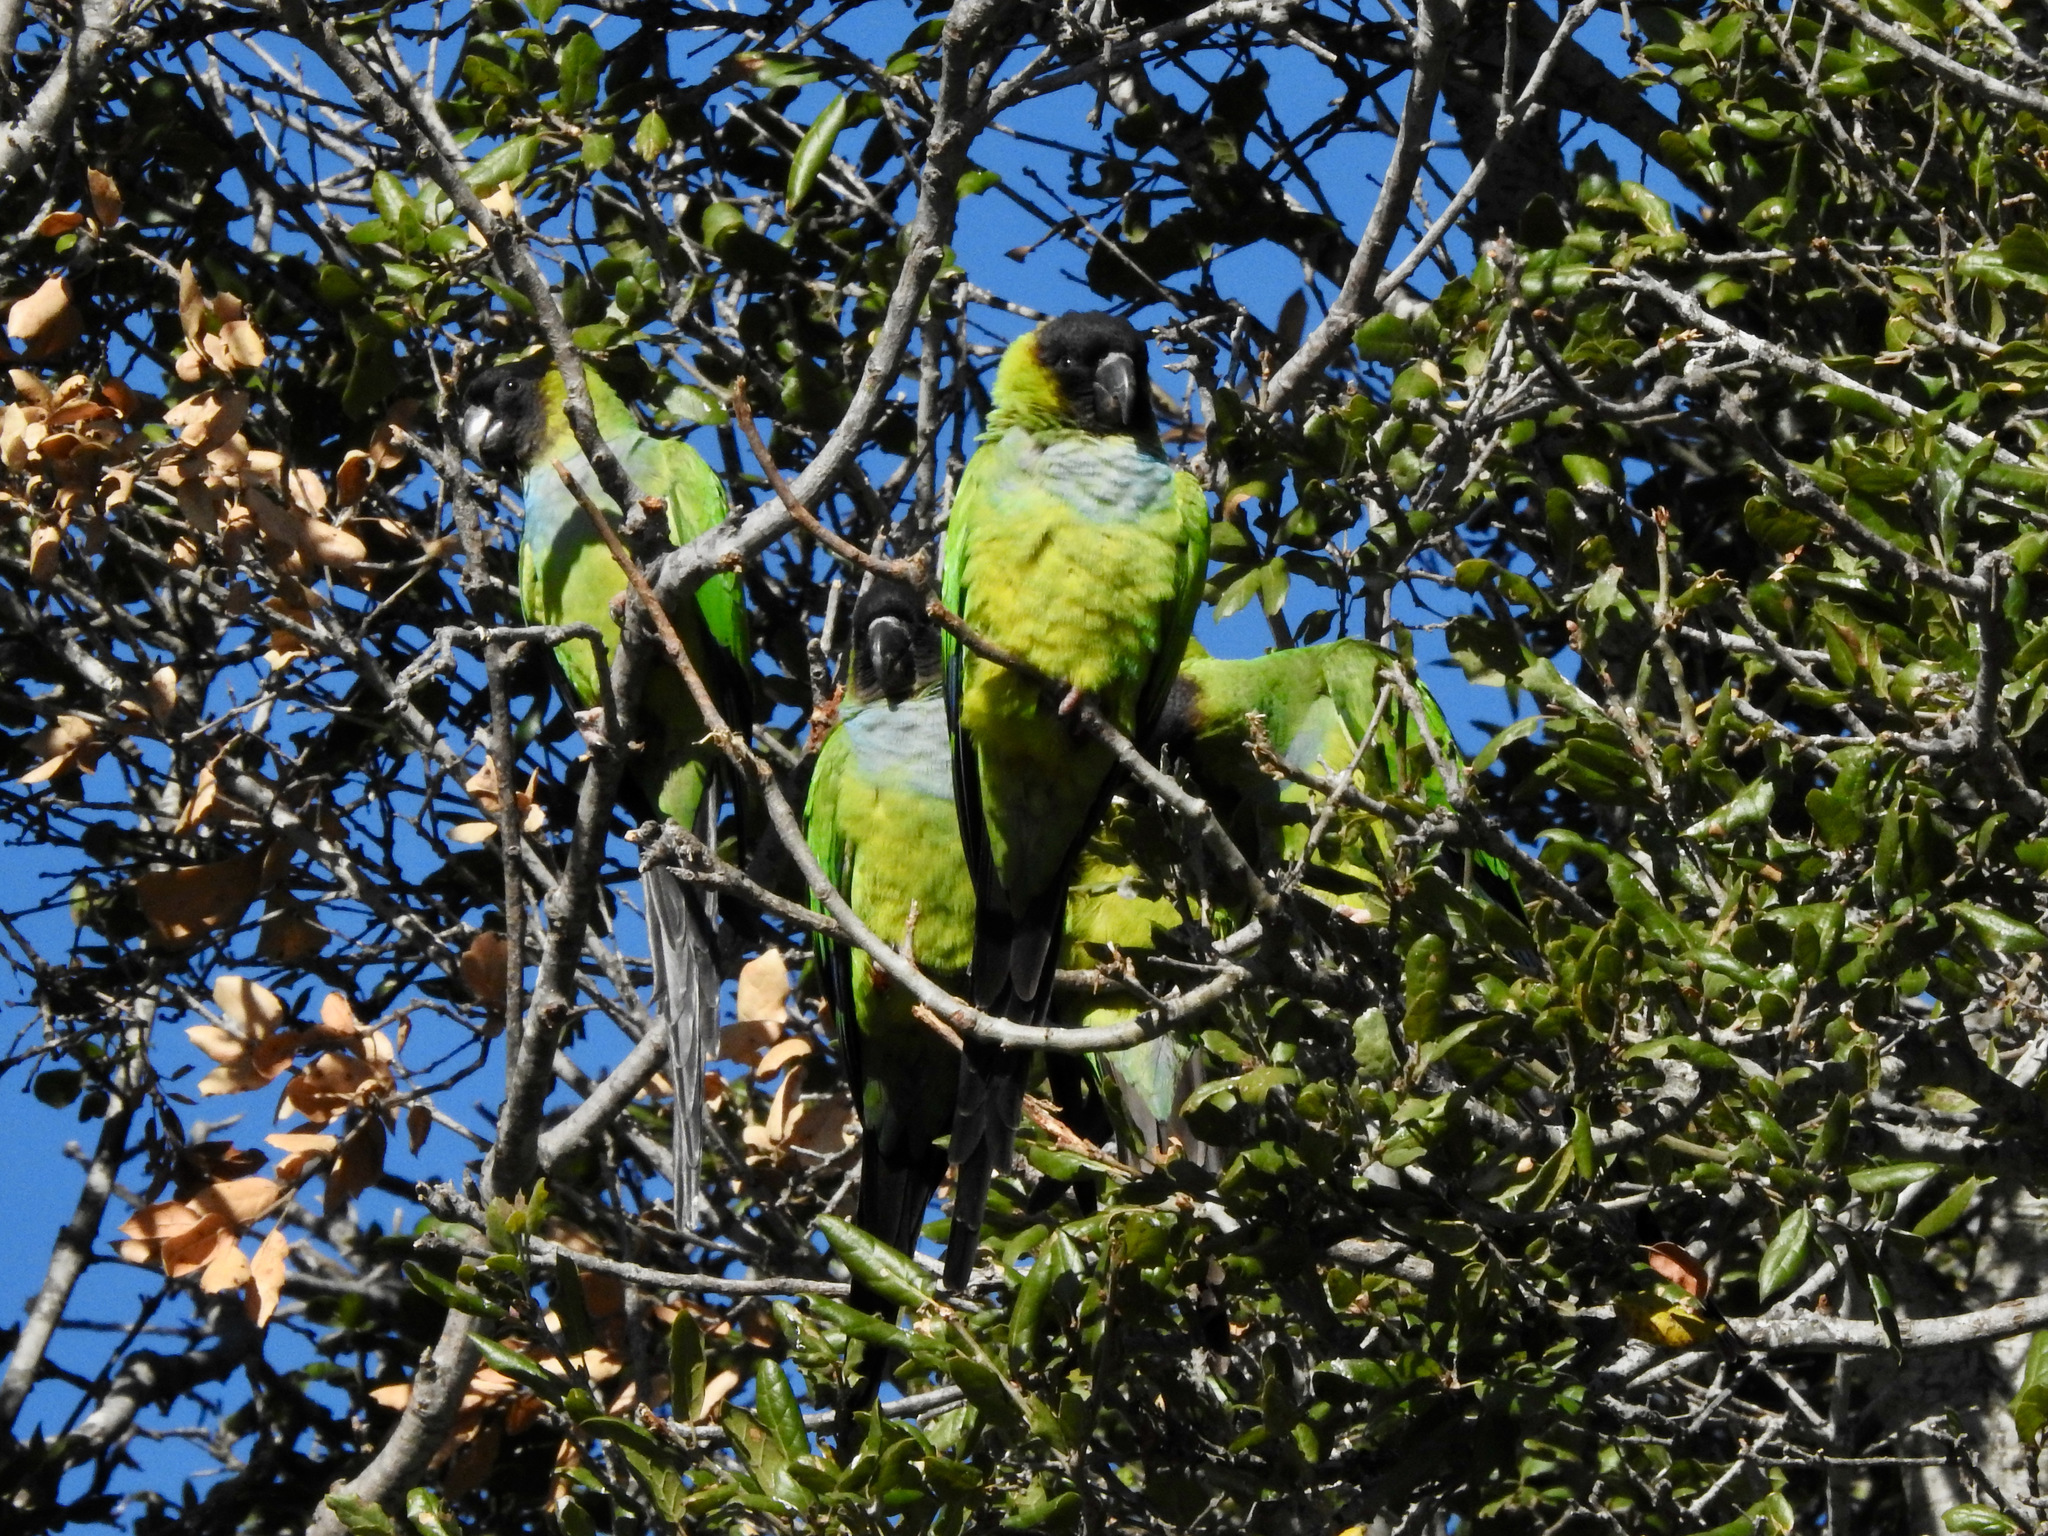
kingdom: Animalia
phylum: Chordata
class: Aves
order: Psittaciformes
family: Psittacidae
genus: Nandayus
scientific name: Nandayus nenday
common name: Nanday parakeet
